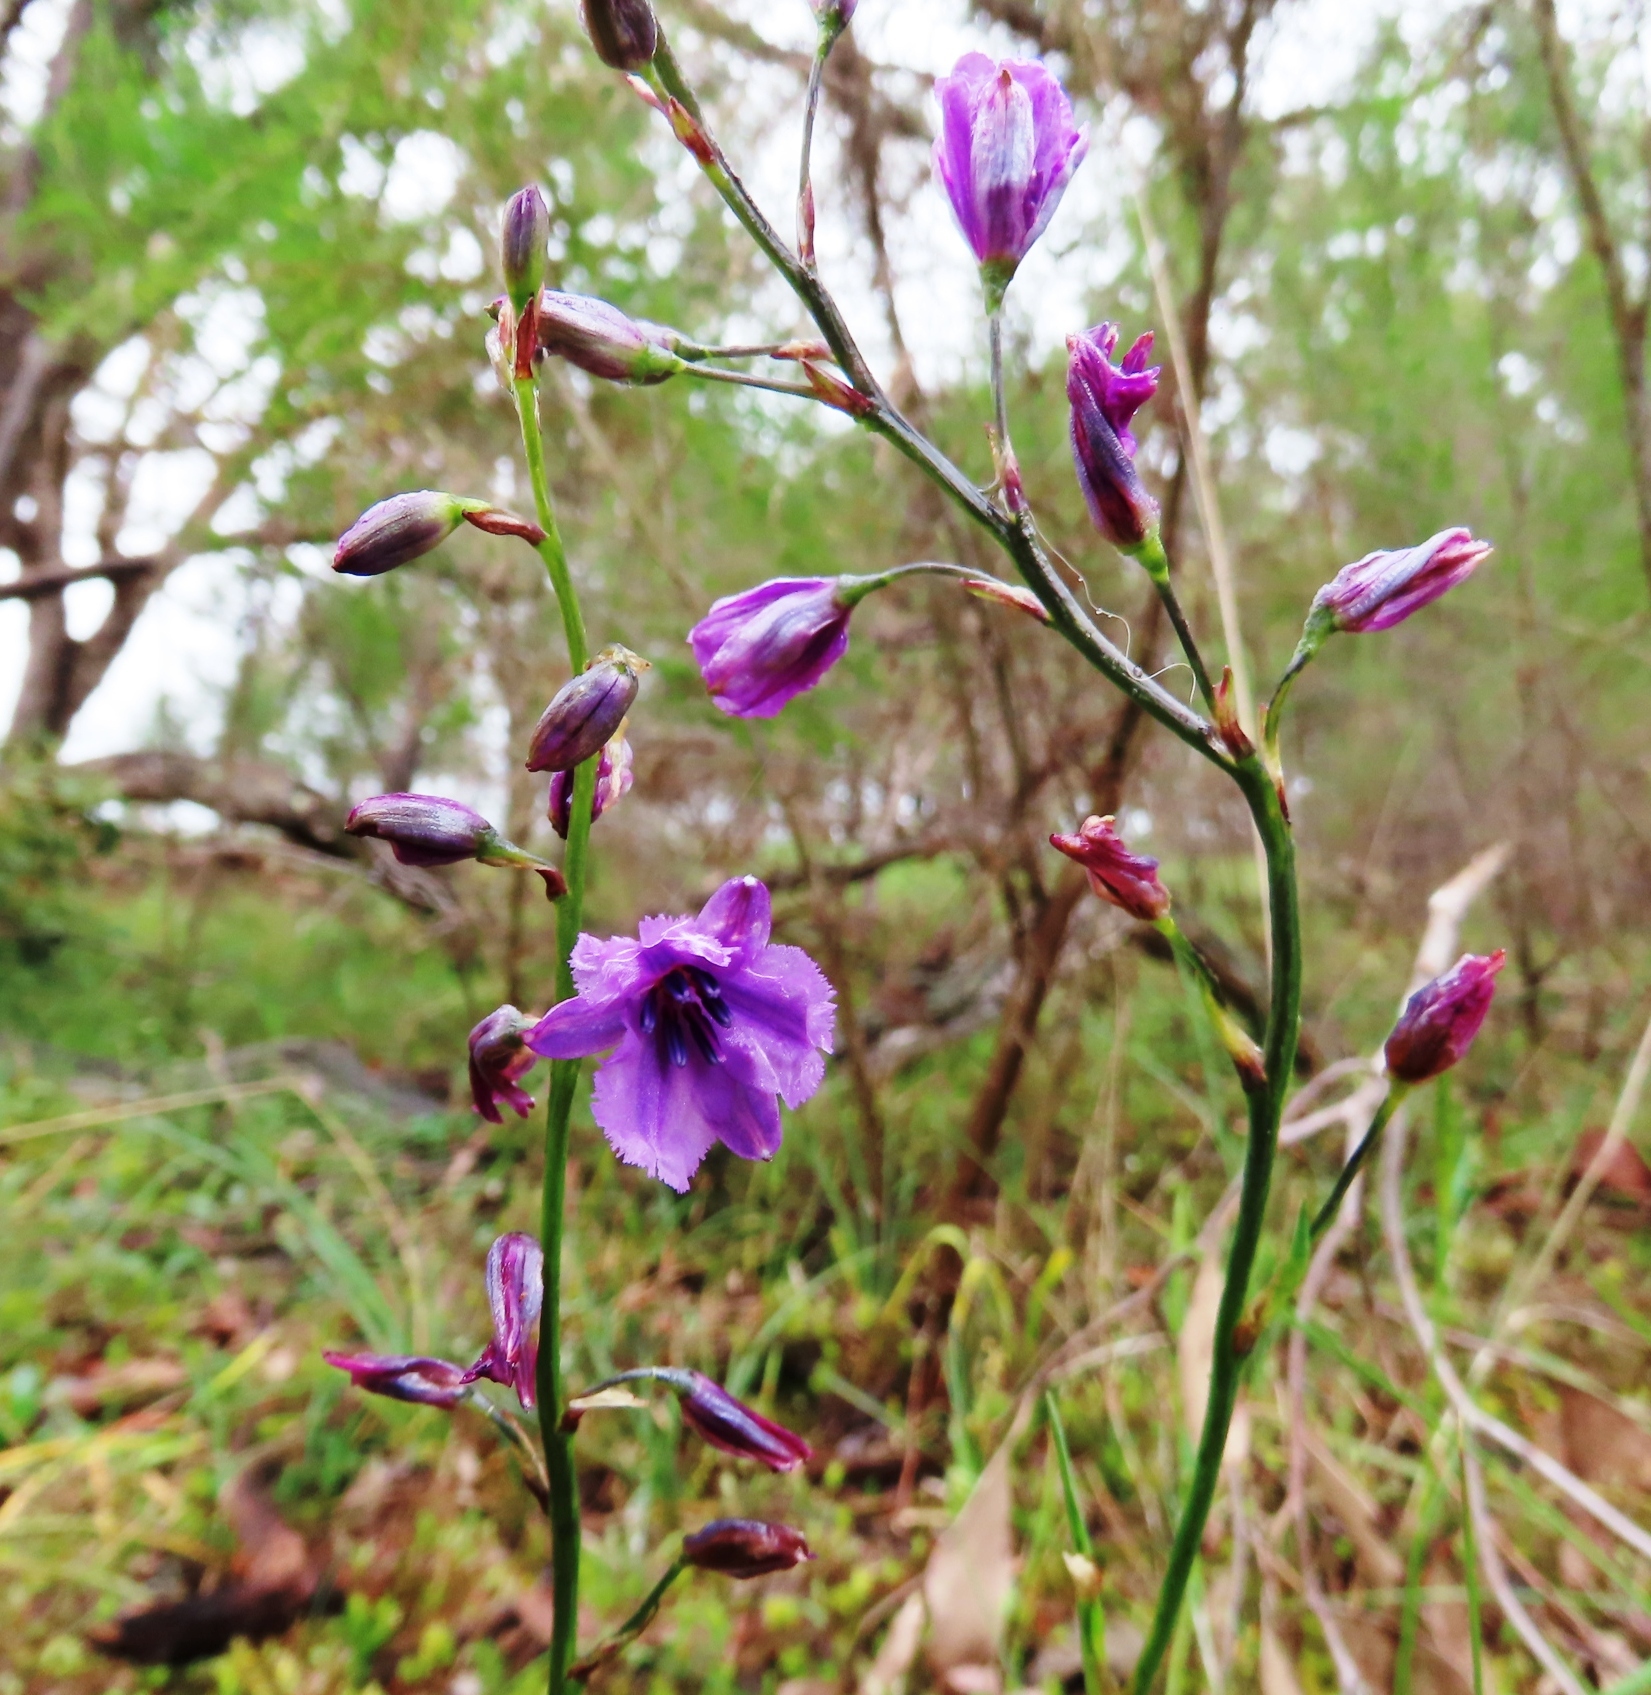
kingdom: Plantae
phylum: Tracheophyta
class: Liliopsida
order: Asparagales
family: Asparagaceae
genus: Arthropodium
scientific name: Arthropodium strictum
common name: Chocolate-lily
